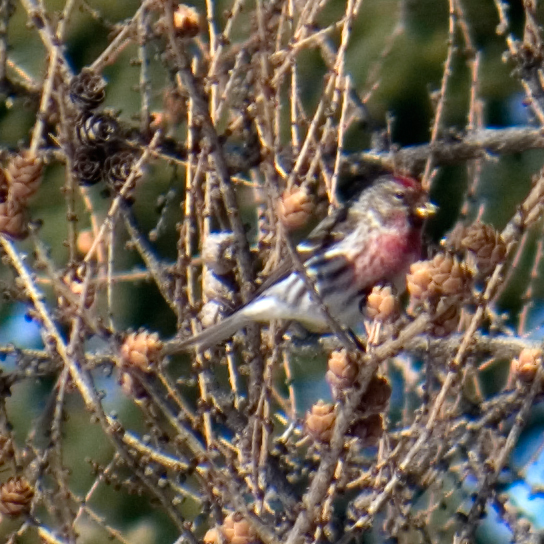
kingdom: Animalia
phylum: Chordata
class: Aves
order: Passeriformes
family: Fringillidae
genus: Acanthis
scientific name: Acanthis flammea
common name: Common redpoll
